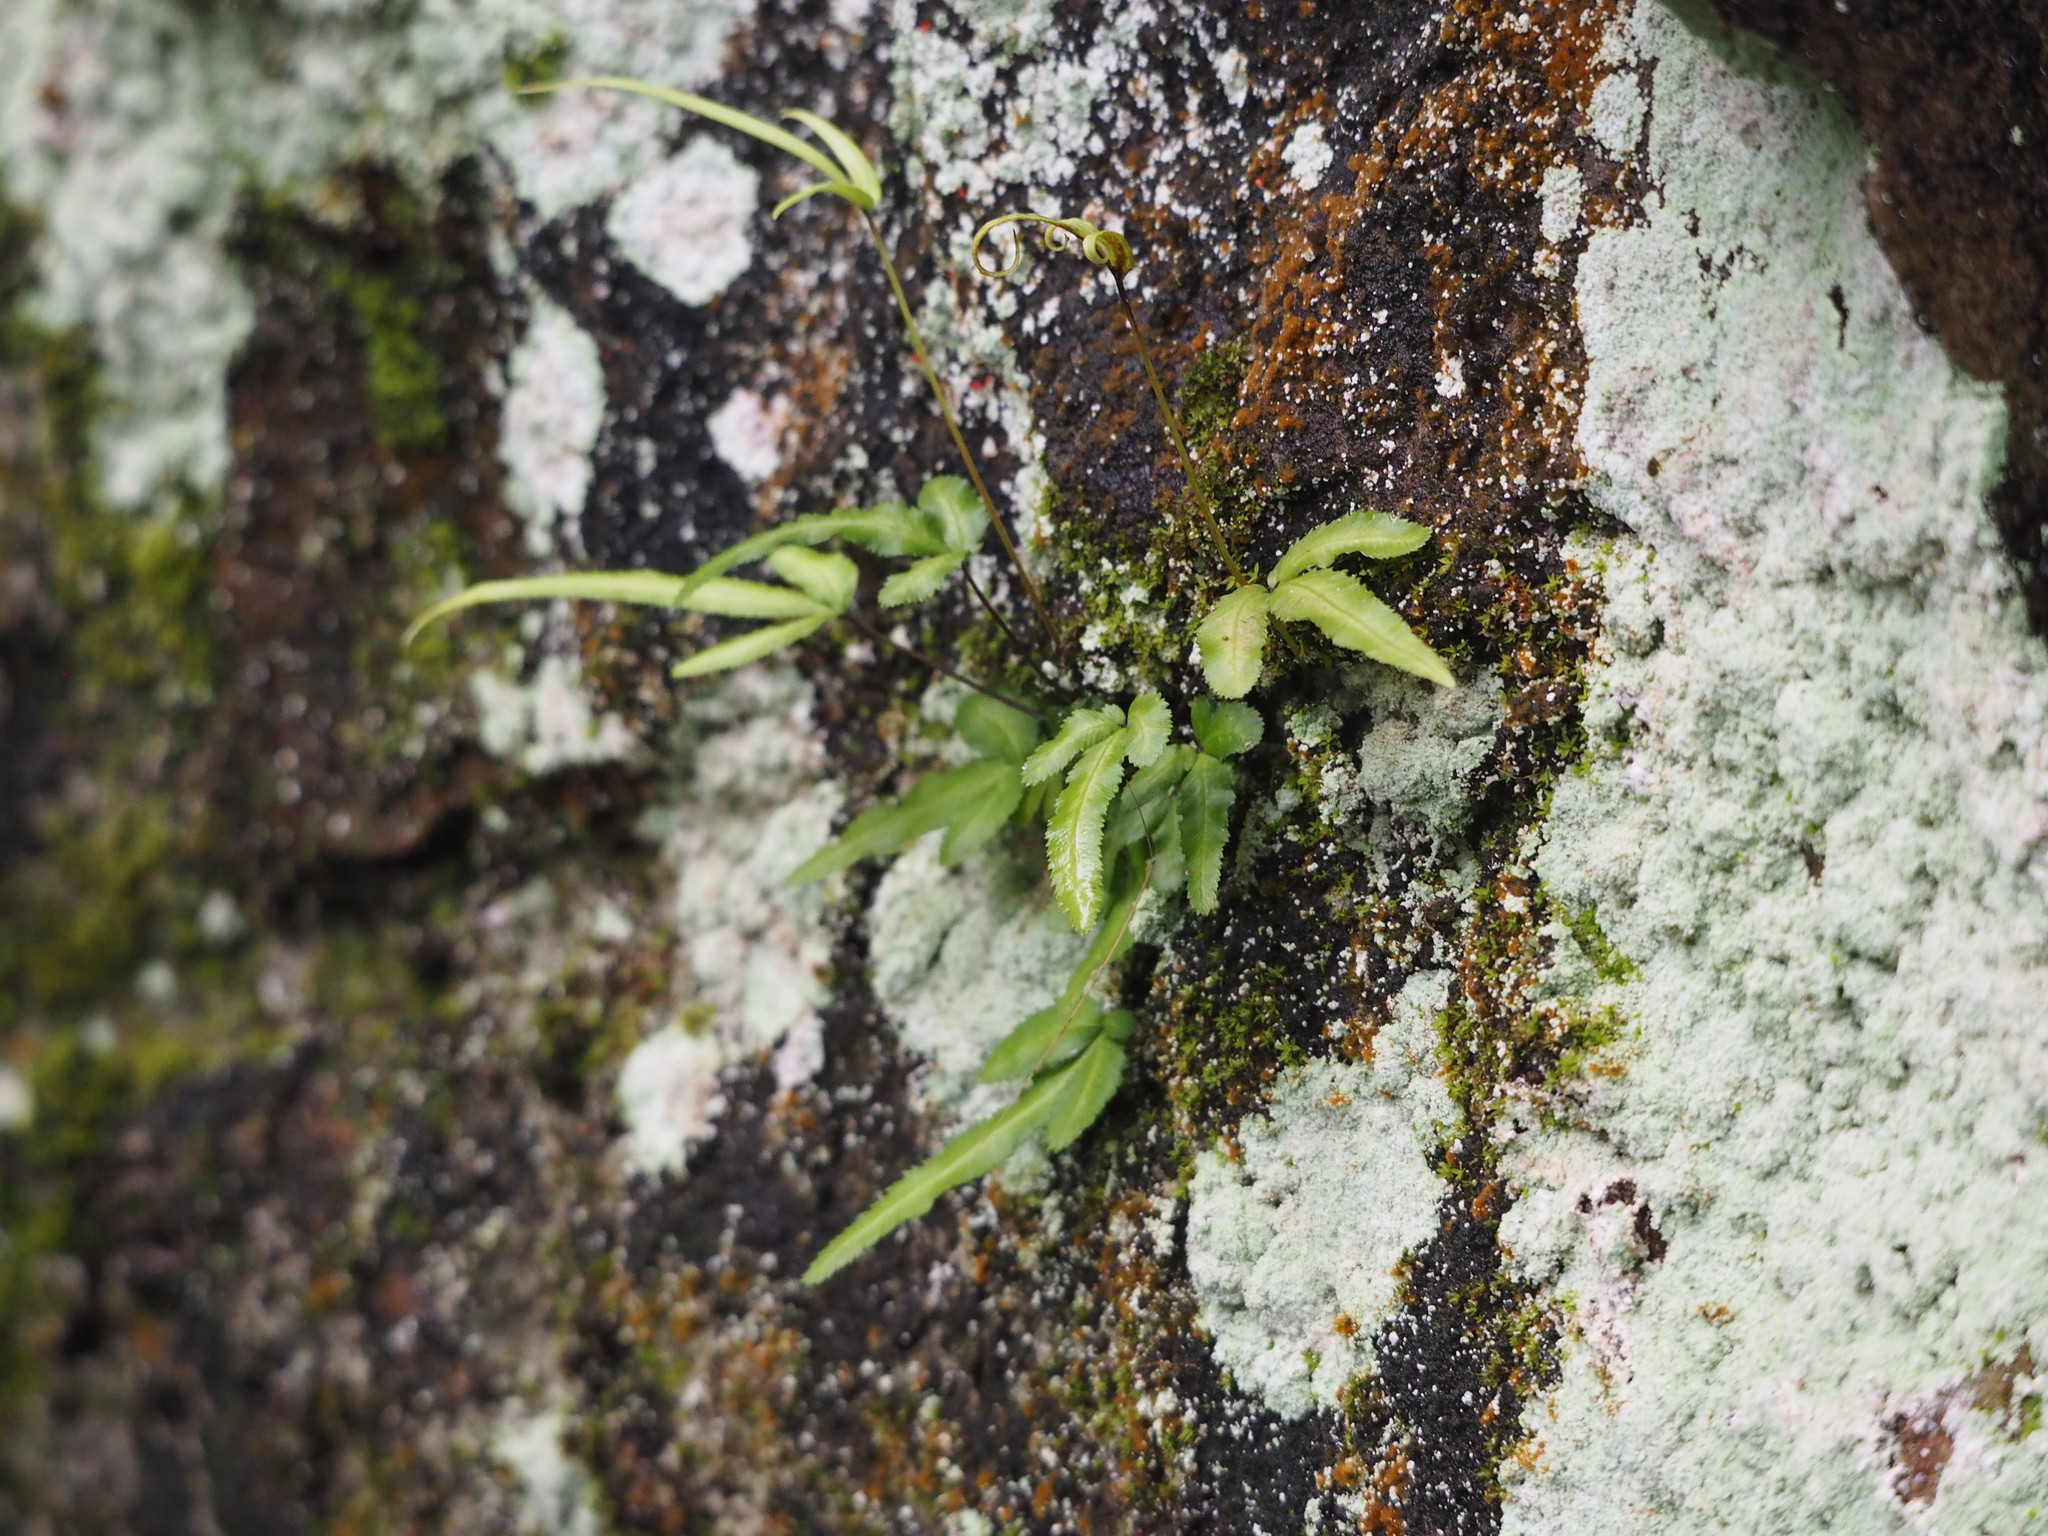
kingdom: Plantae
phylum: Tracheophyta
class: Polypodiopsida
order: Polypodiales
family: Pteridaceae
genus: Pteris
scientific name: Pteris ryukyuensis
